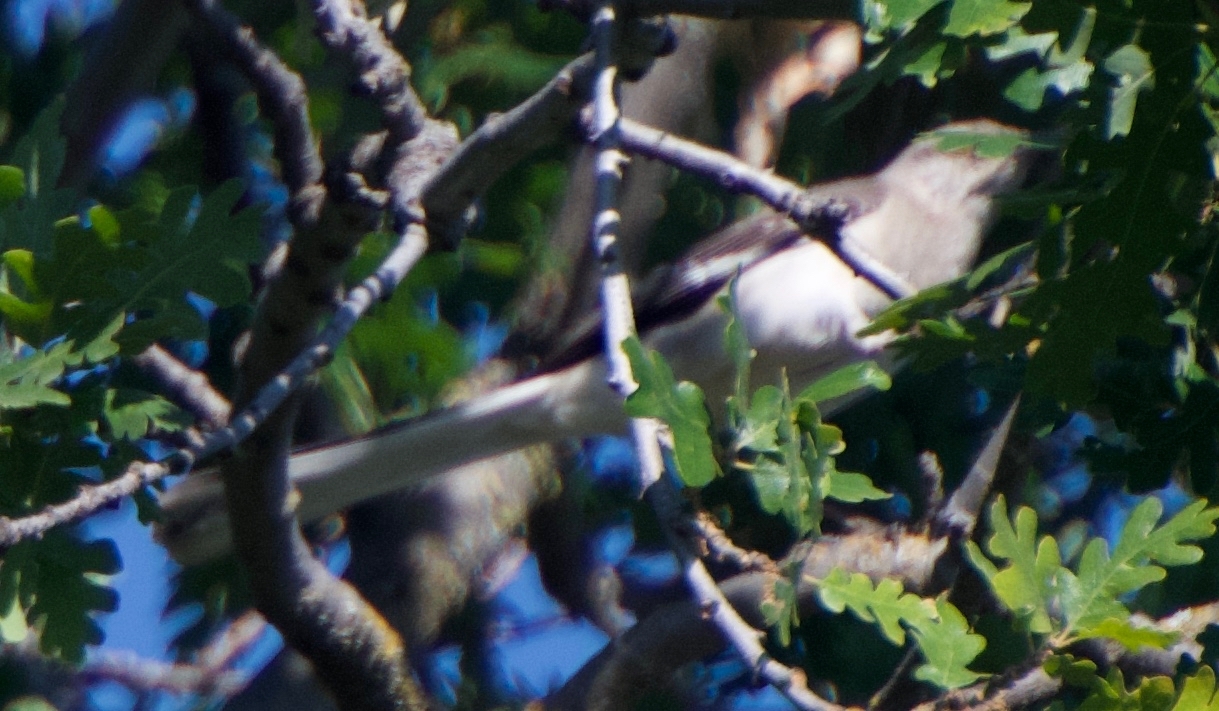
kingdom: Animalia
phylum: Chordata
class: Aves
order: Passeriformes
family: Mimidae
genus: Mimus
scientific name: Mimus polyglottos
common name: Northern mockingbird
